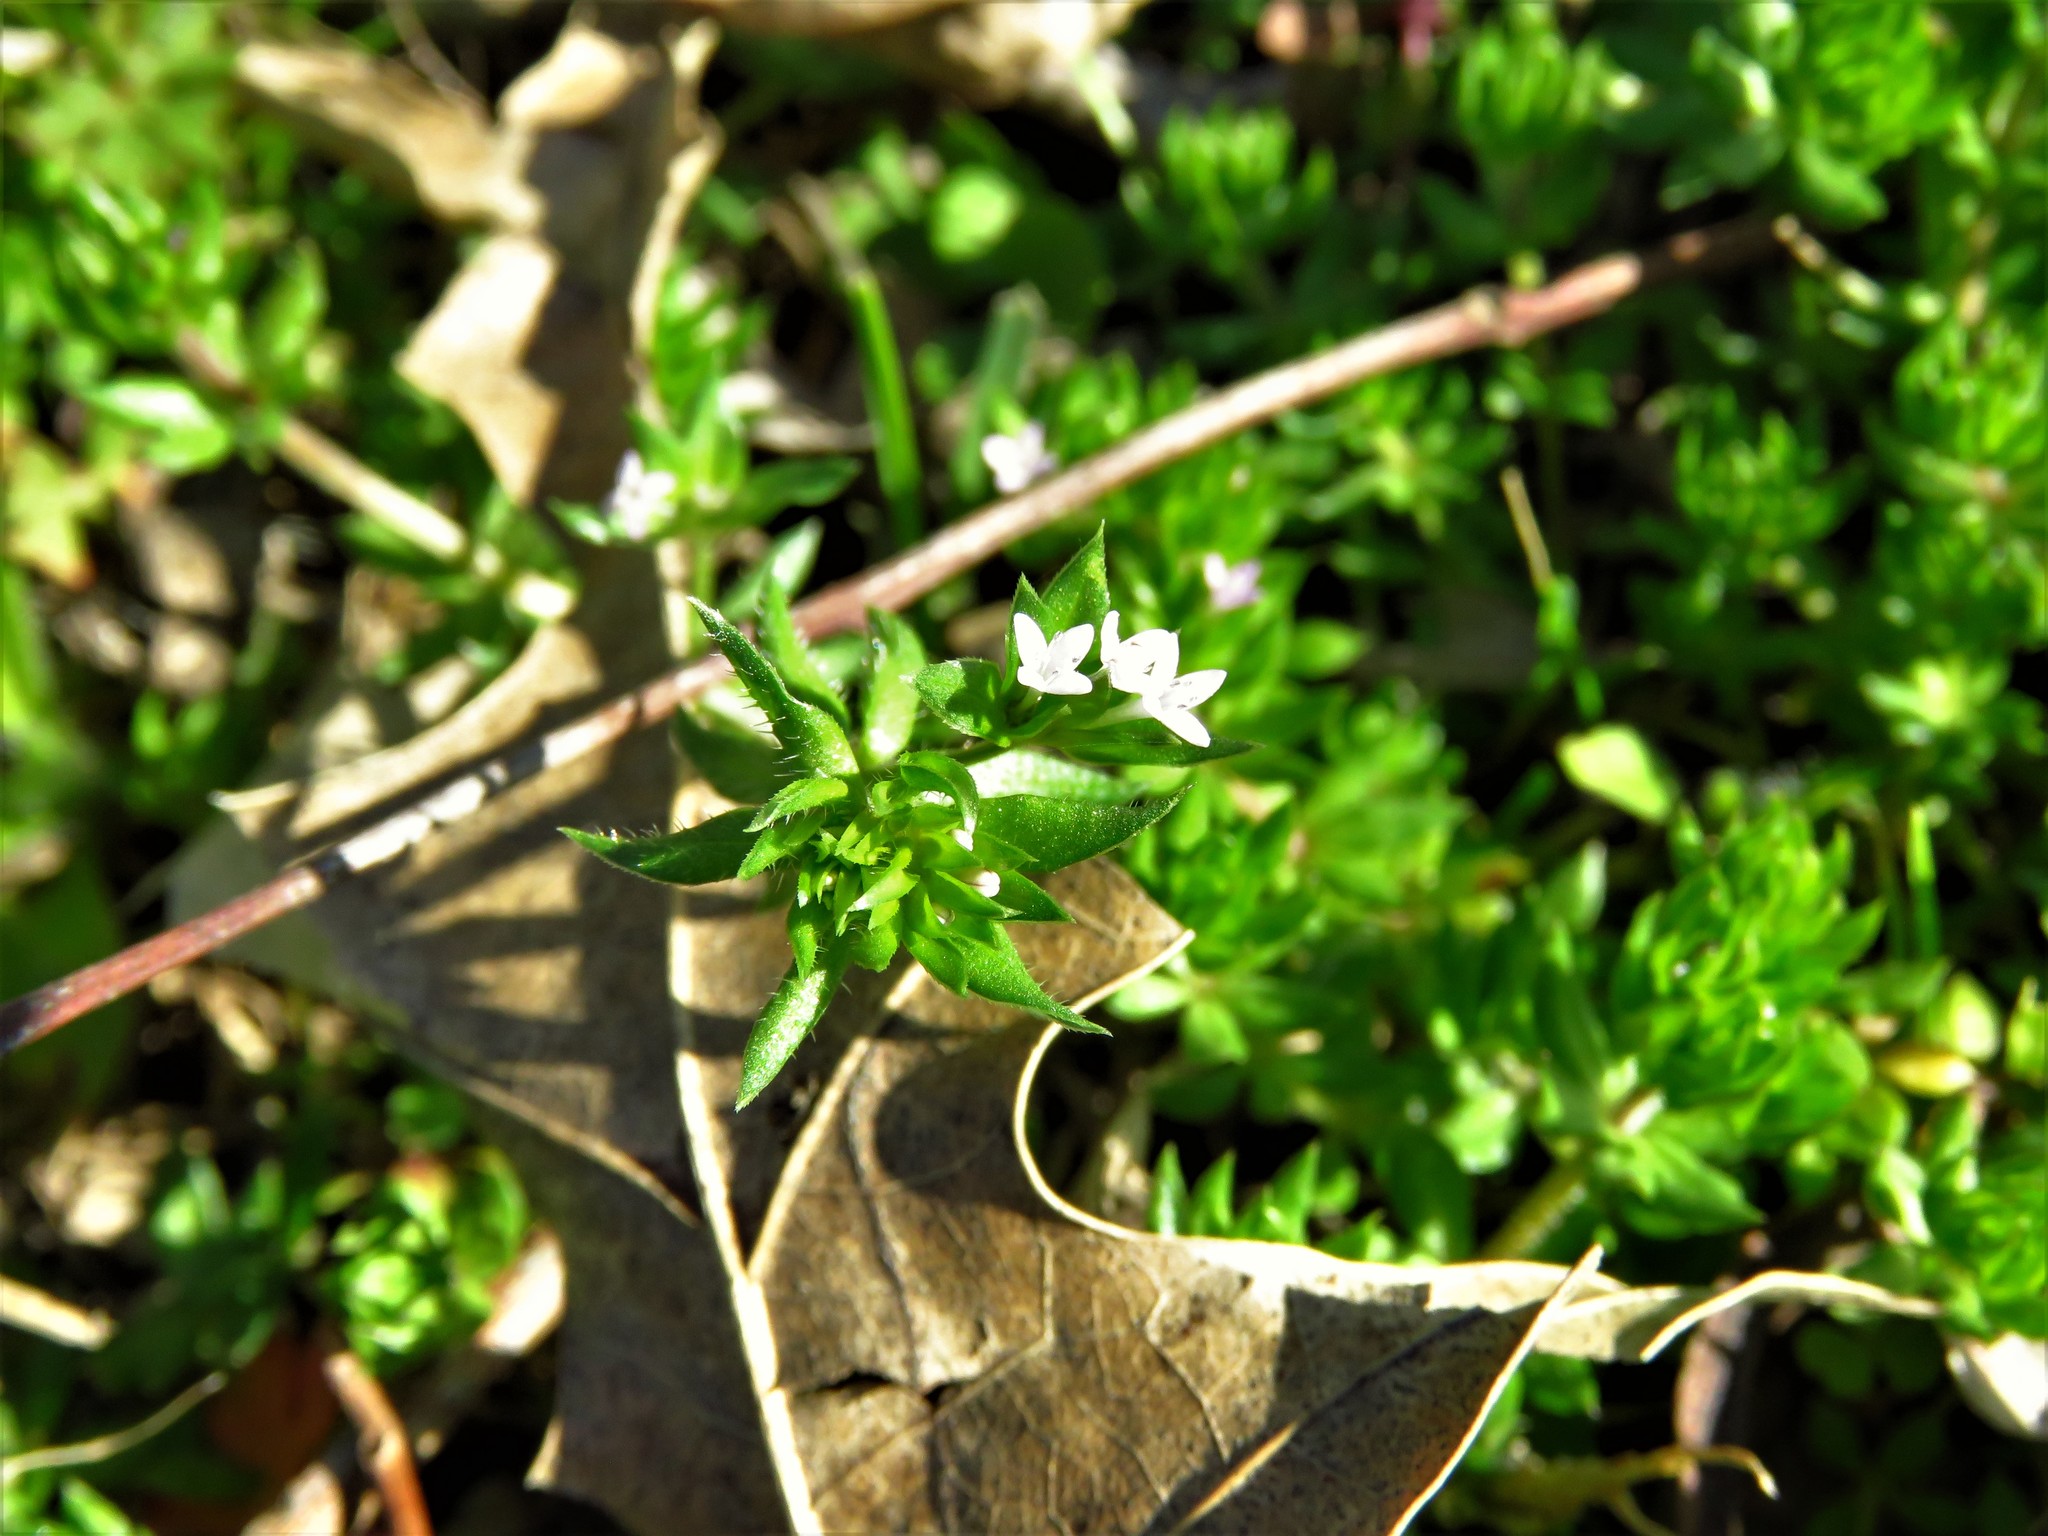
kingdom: Plantae
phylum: Tracheophyta
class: Magnoliopsida
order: Gentianales
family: Rubiaceae
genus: Sherardia
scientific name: Sherardia arvensis
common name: Field madder
